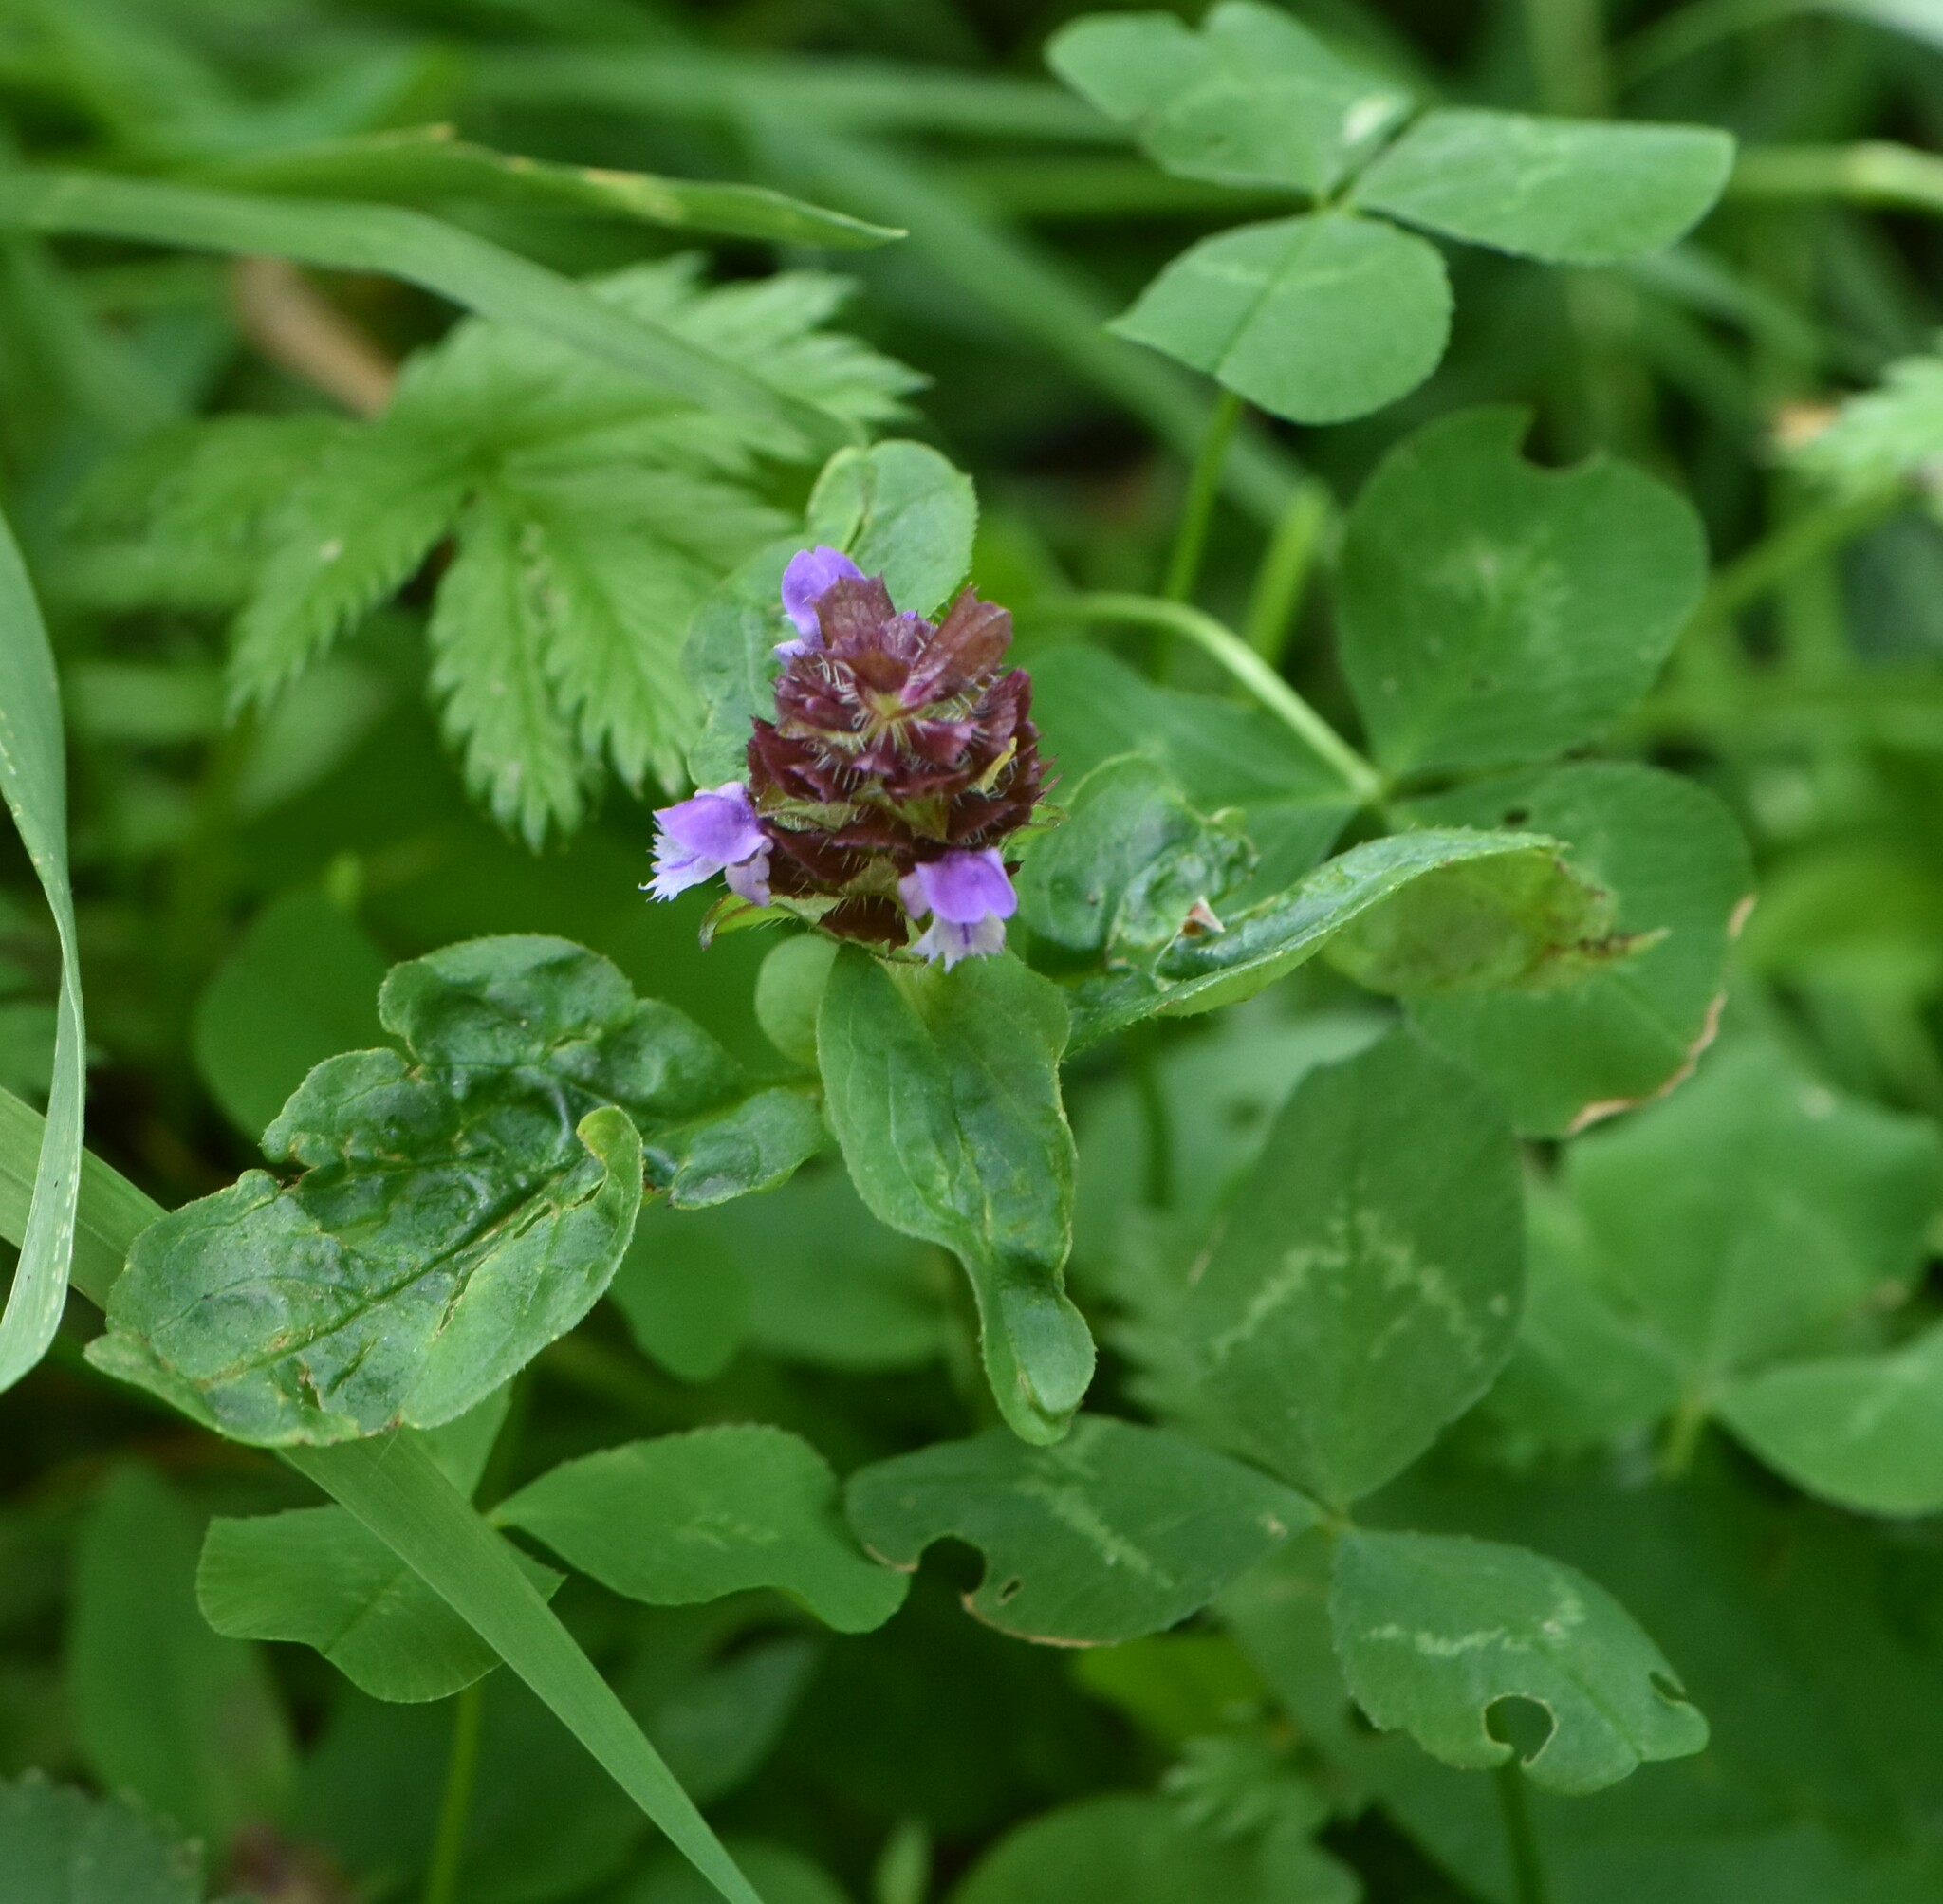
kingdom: Plantae
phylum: Tracheophyta
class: Magnoliopsida
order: Lamiales
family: Lamiaceae
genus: Prunella
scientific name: Prunella vulgaris
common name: Heal-all
